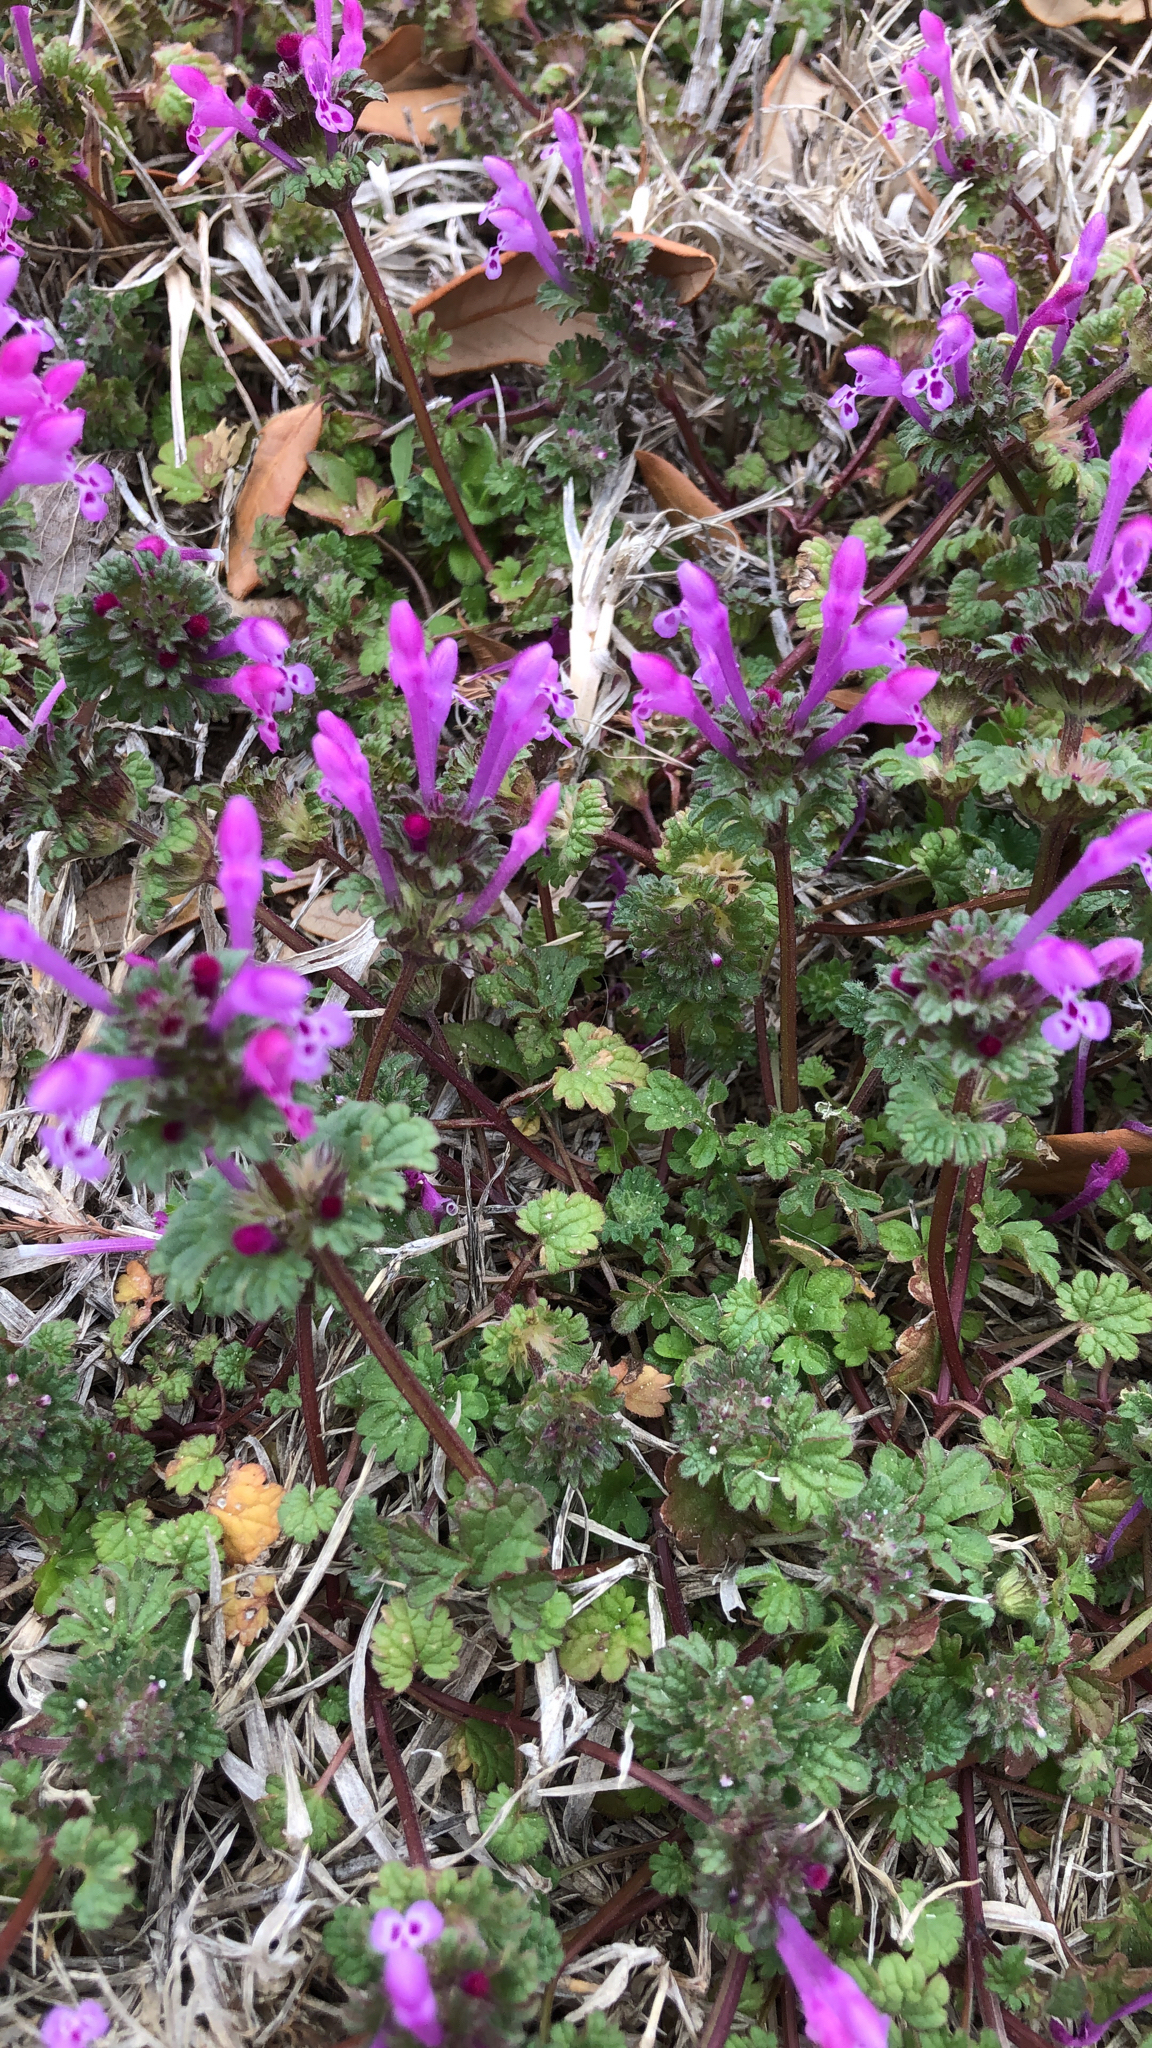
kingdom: Plantae
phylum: Tracheophyta
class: Magnoliopsida
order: Lamiales
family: Lamiaceae
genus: Lamium
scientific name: Lamium amplexicaule
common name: Henbit dead-nettle
